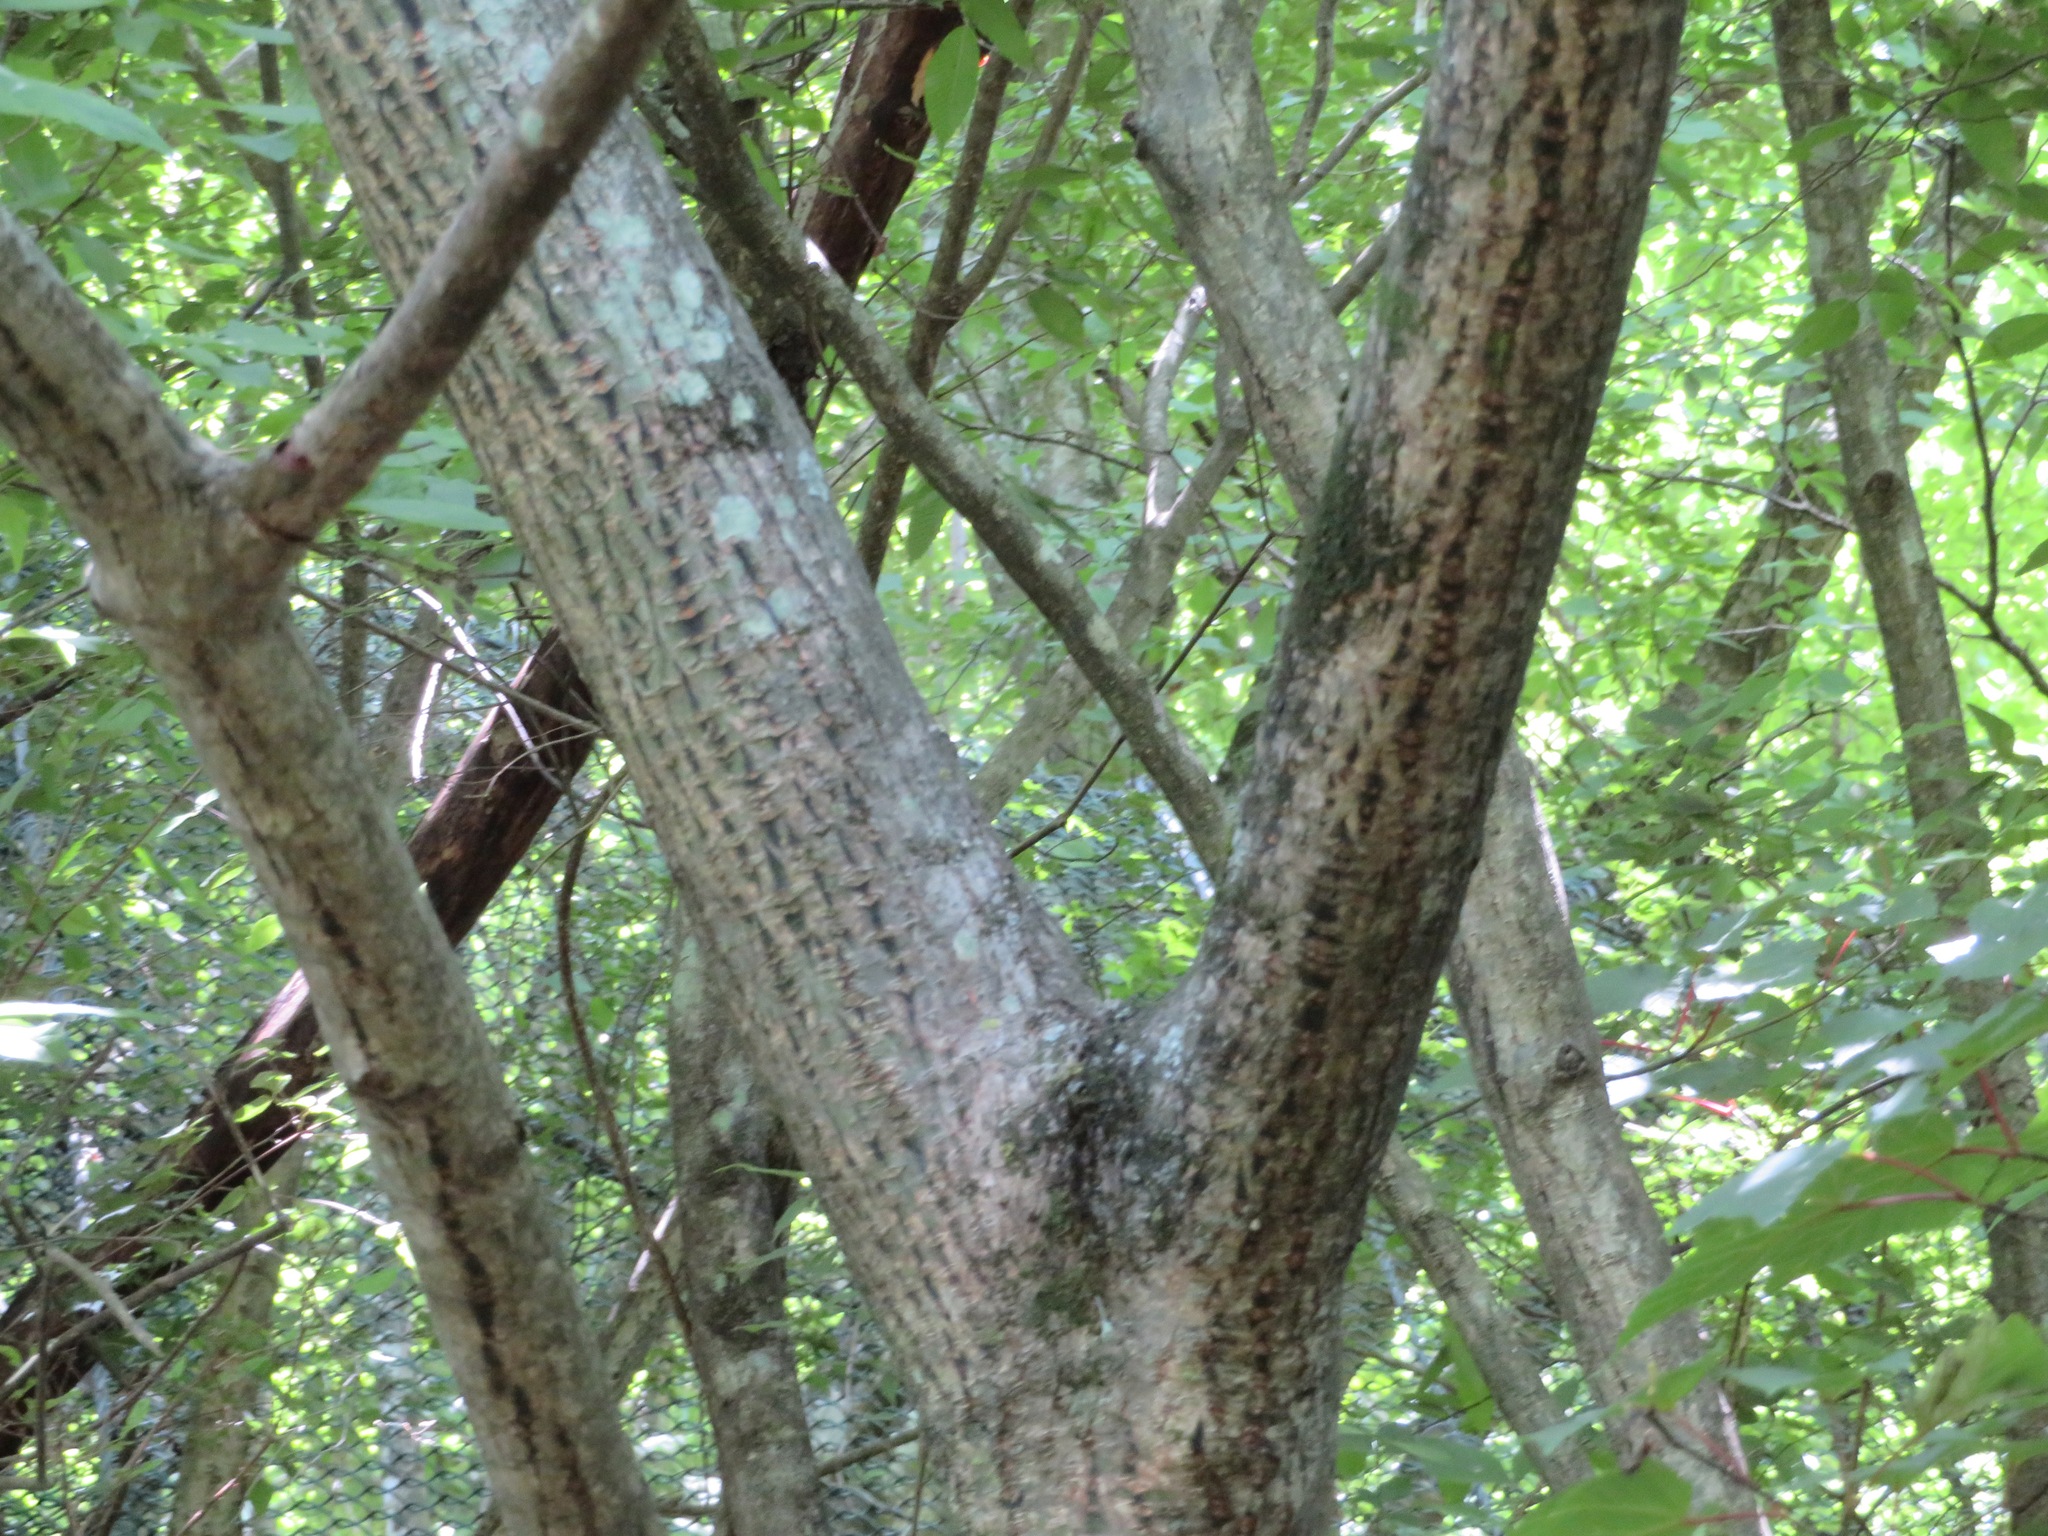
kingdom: Plantae
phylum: Tracheophyta
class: Magnoliopsida
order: Sapindales
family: Sapindaceae
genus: Acer
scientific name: Acer capillipes
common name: Kyushu maple
